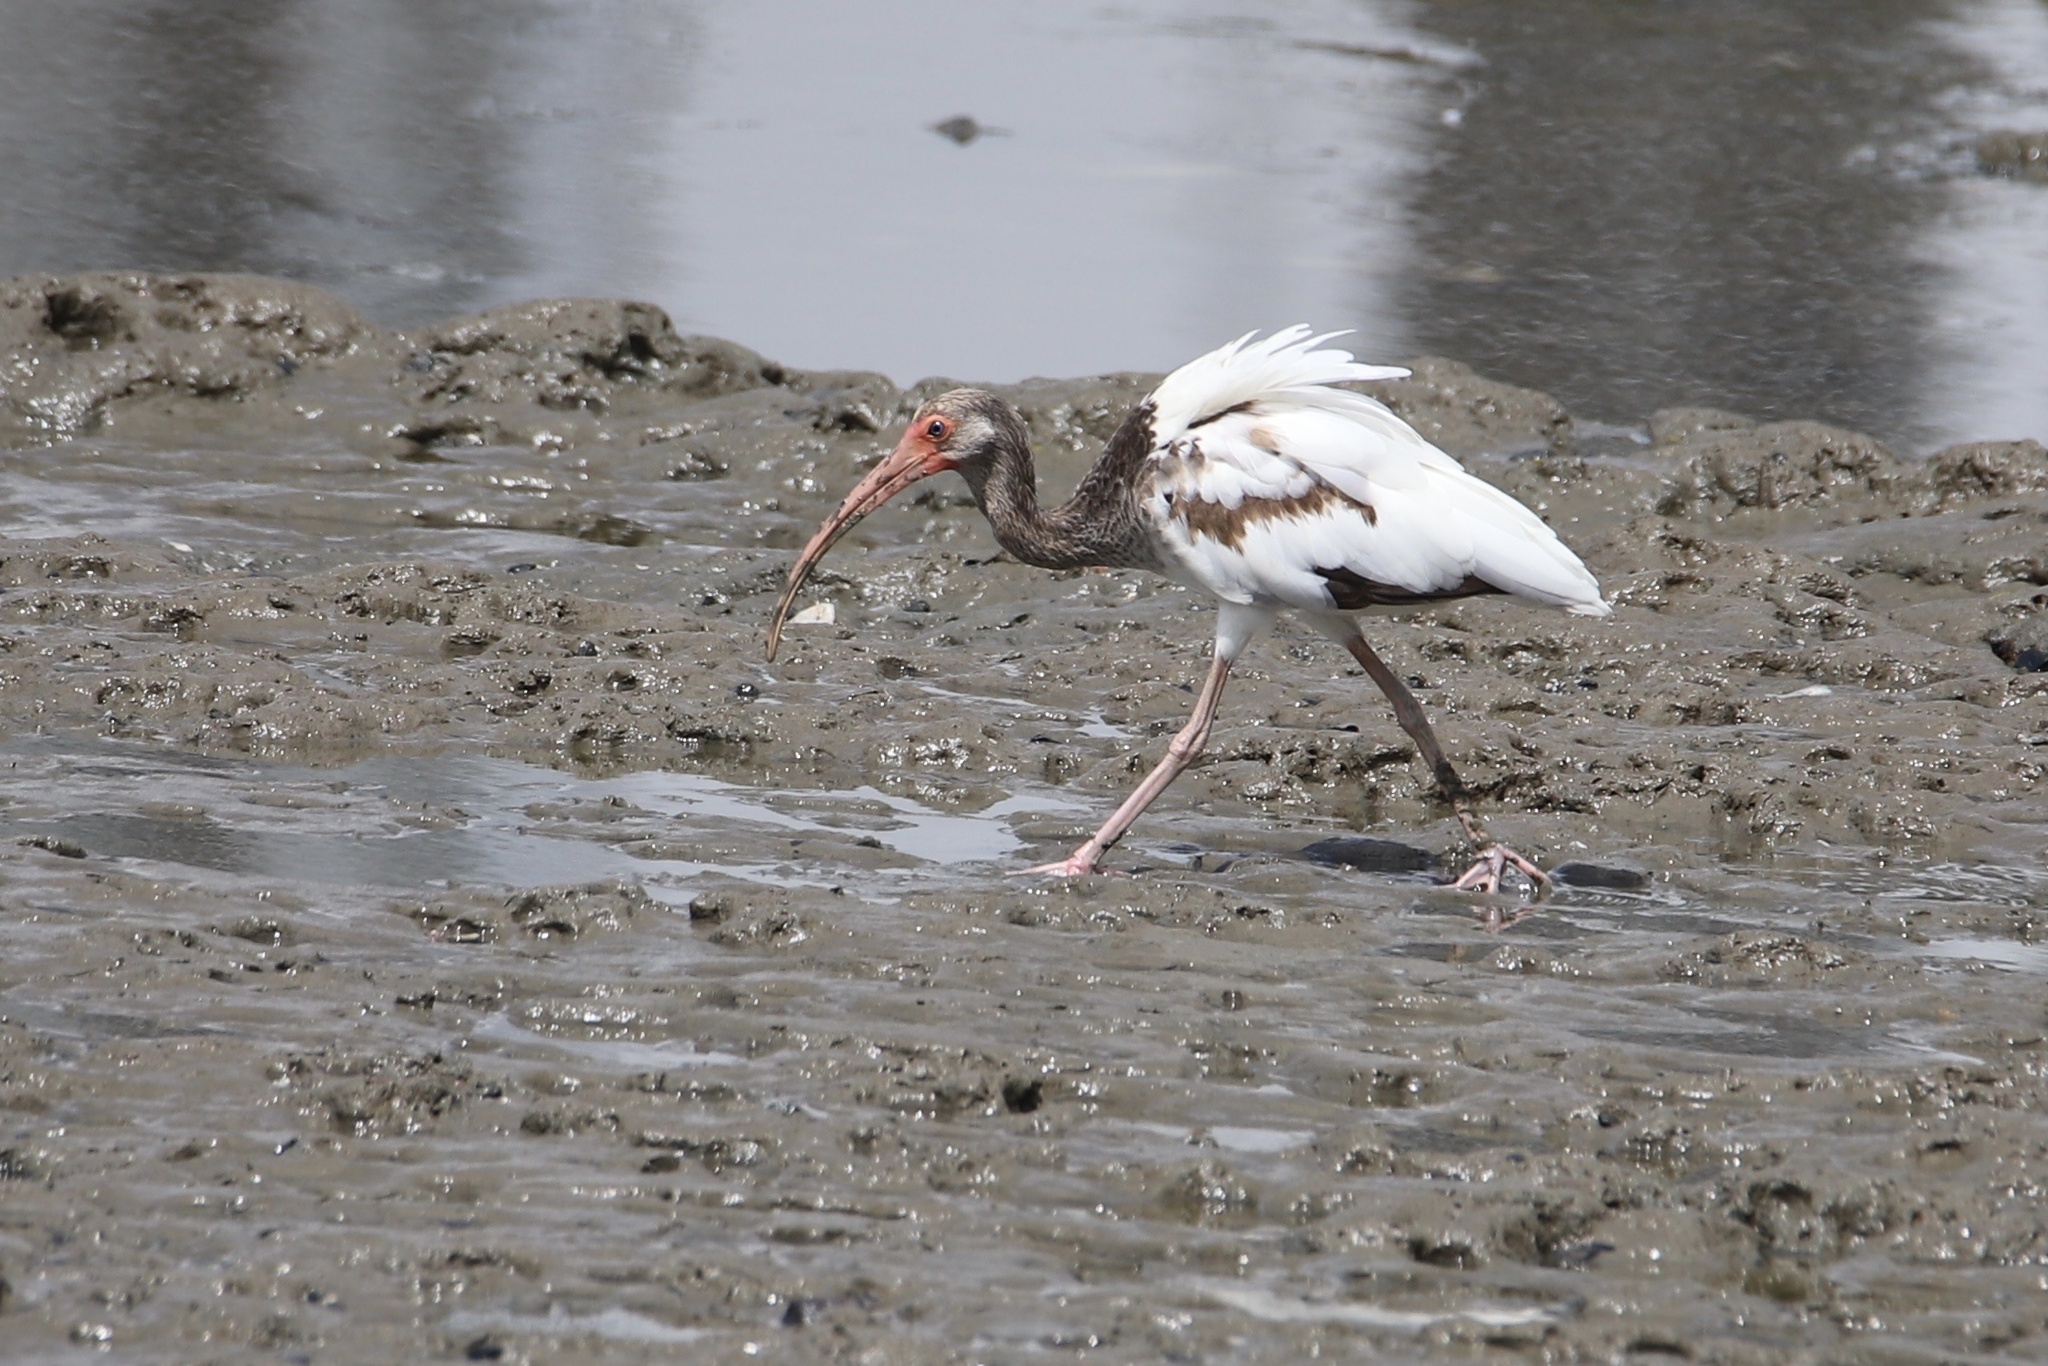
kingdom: Animalia
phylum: Chordata
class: Aves
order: Pelecaniformes
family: Threskiornithidae
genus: Eudocimus
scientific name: Eudocimus albus
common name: White ibis
